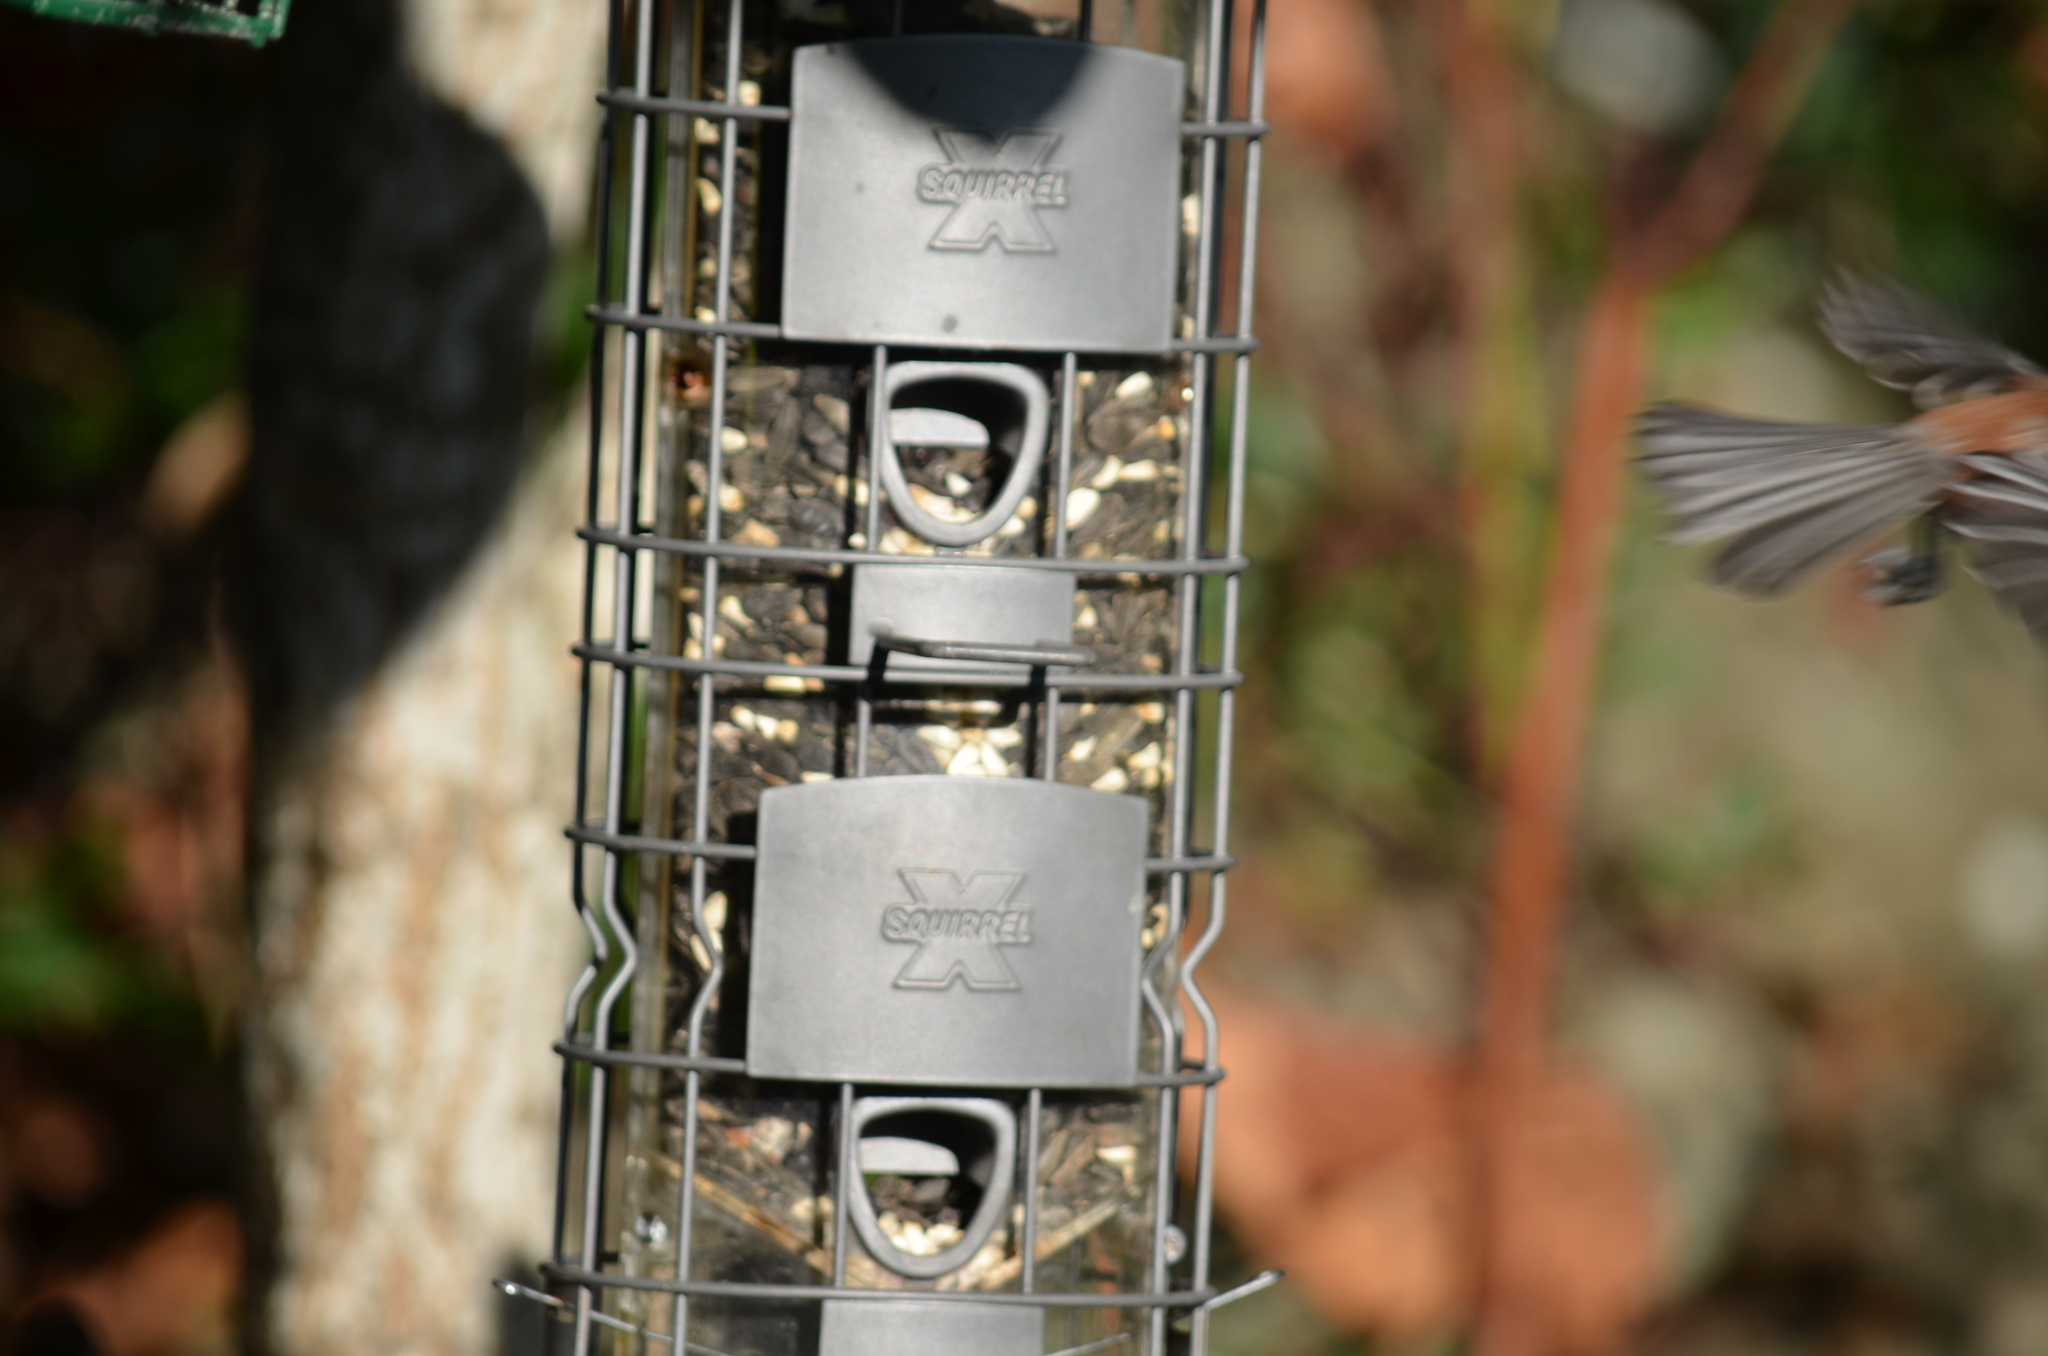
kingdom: Animalia
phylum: Chordata
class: Aves
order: Passeriformes
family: Paridae
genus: Poecile
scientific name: Poecile rufescens
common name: Chestnut-backed chickadee
